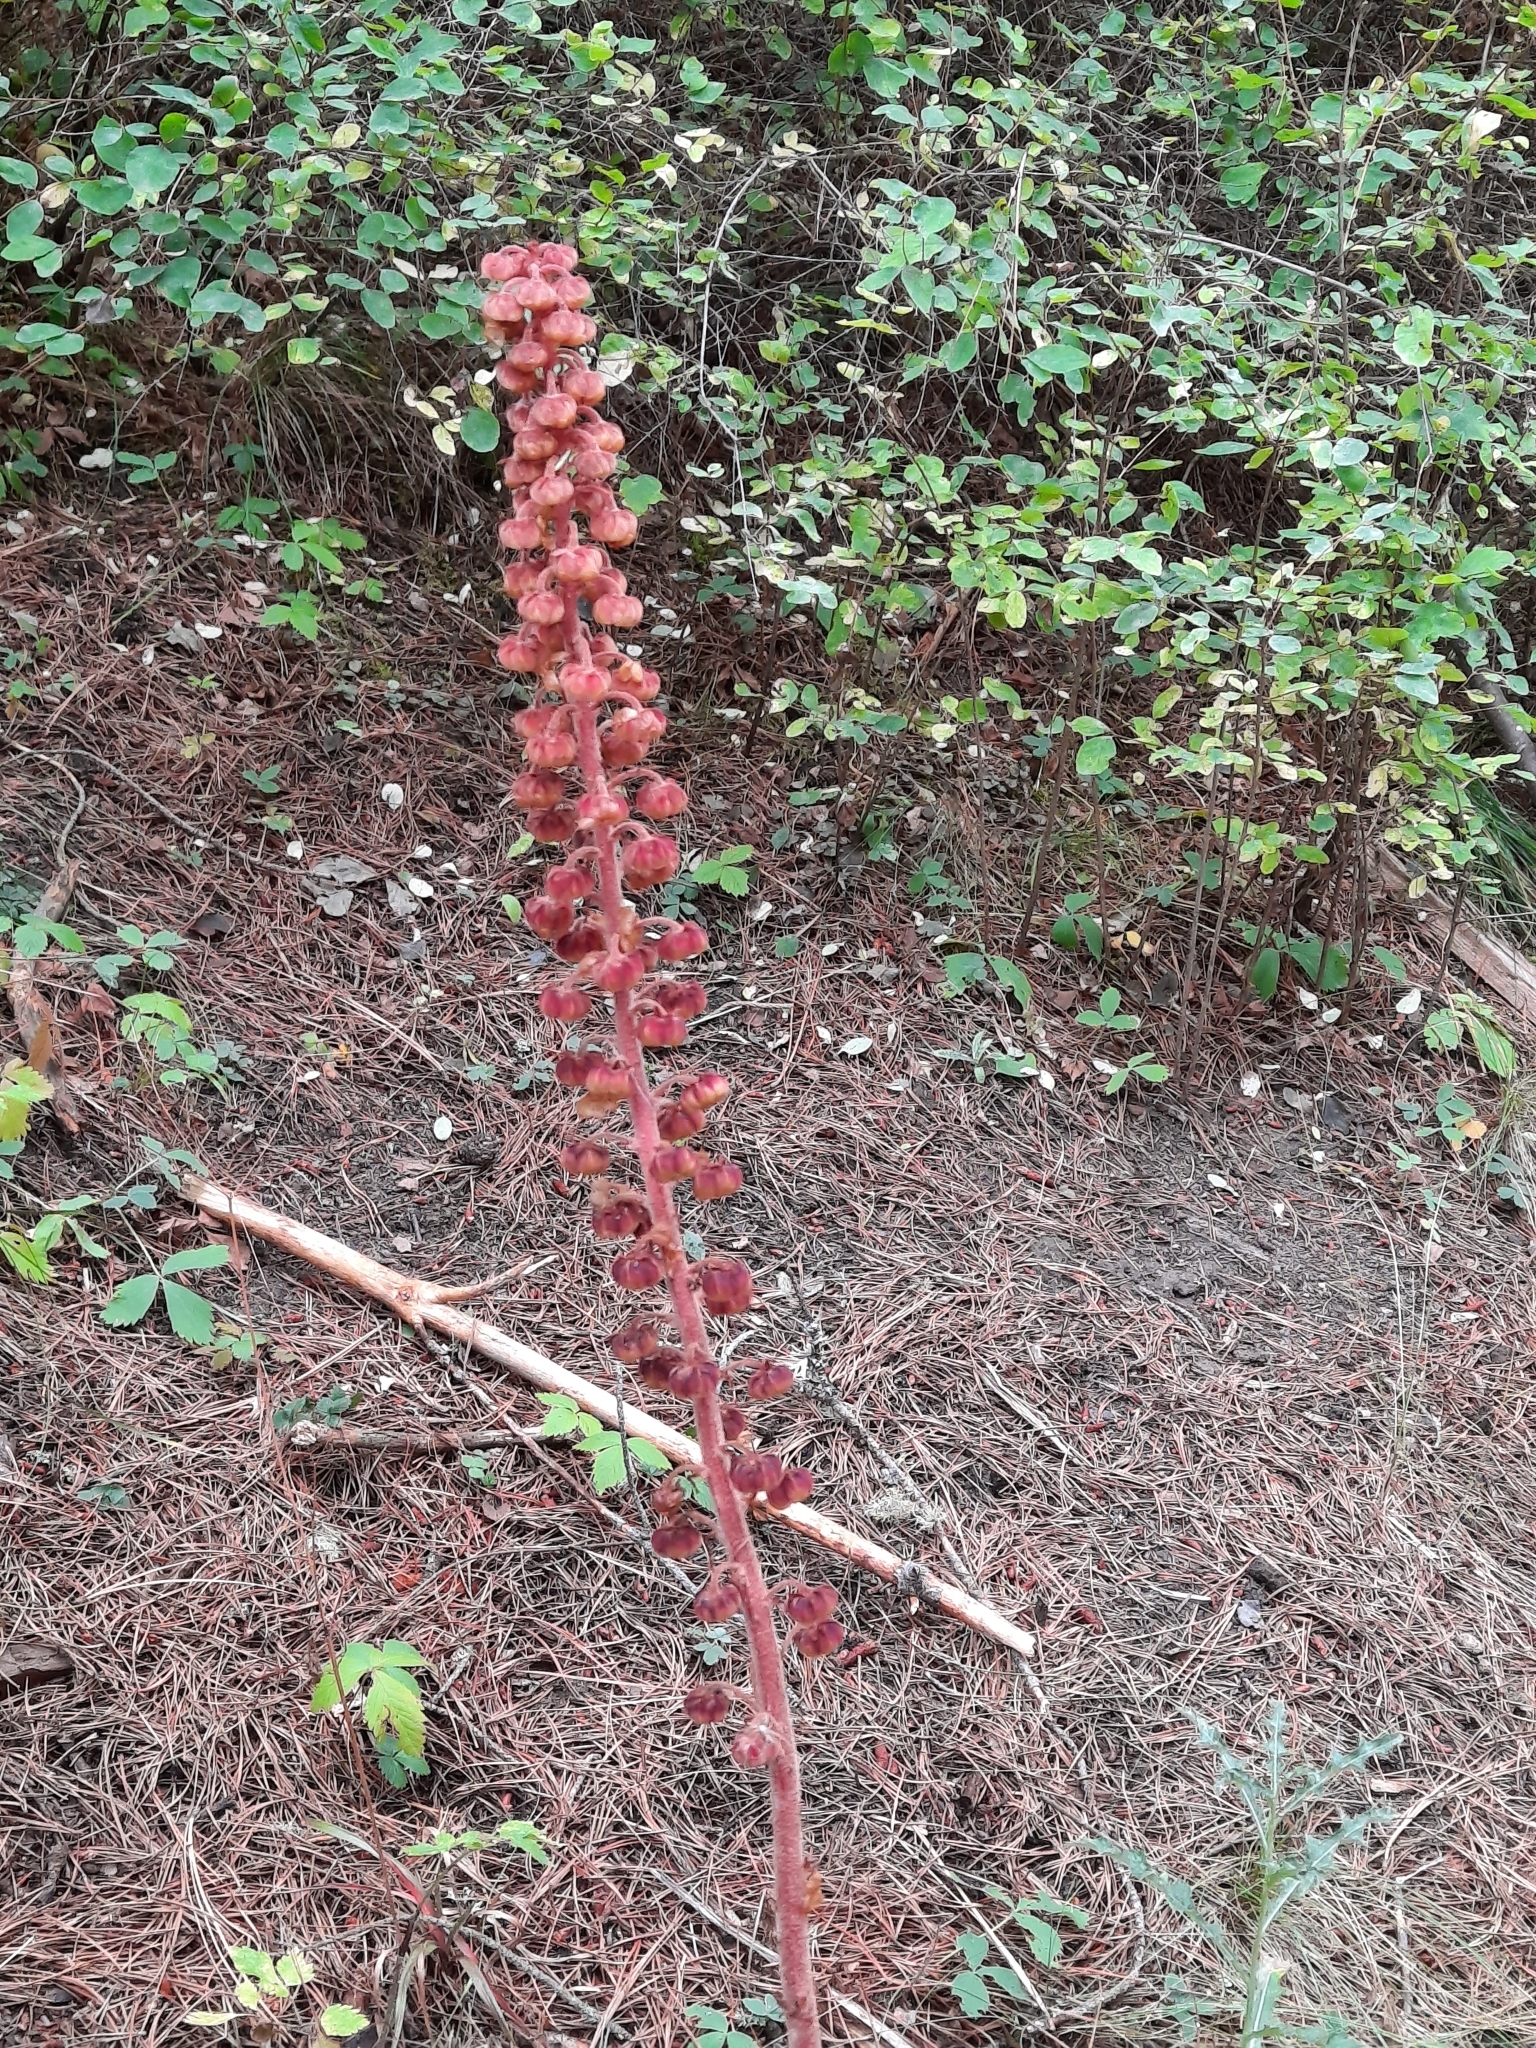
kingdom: Plantae
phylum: Tracheophyta
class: Magnoliopsida
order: Ericales
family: Ericaceae
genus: Pterospora
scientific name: Pterospora andromedea
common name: Giant bird's-nest
